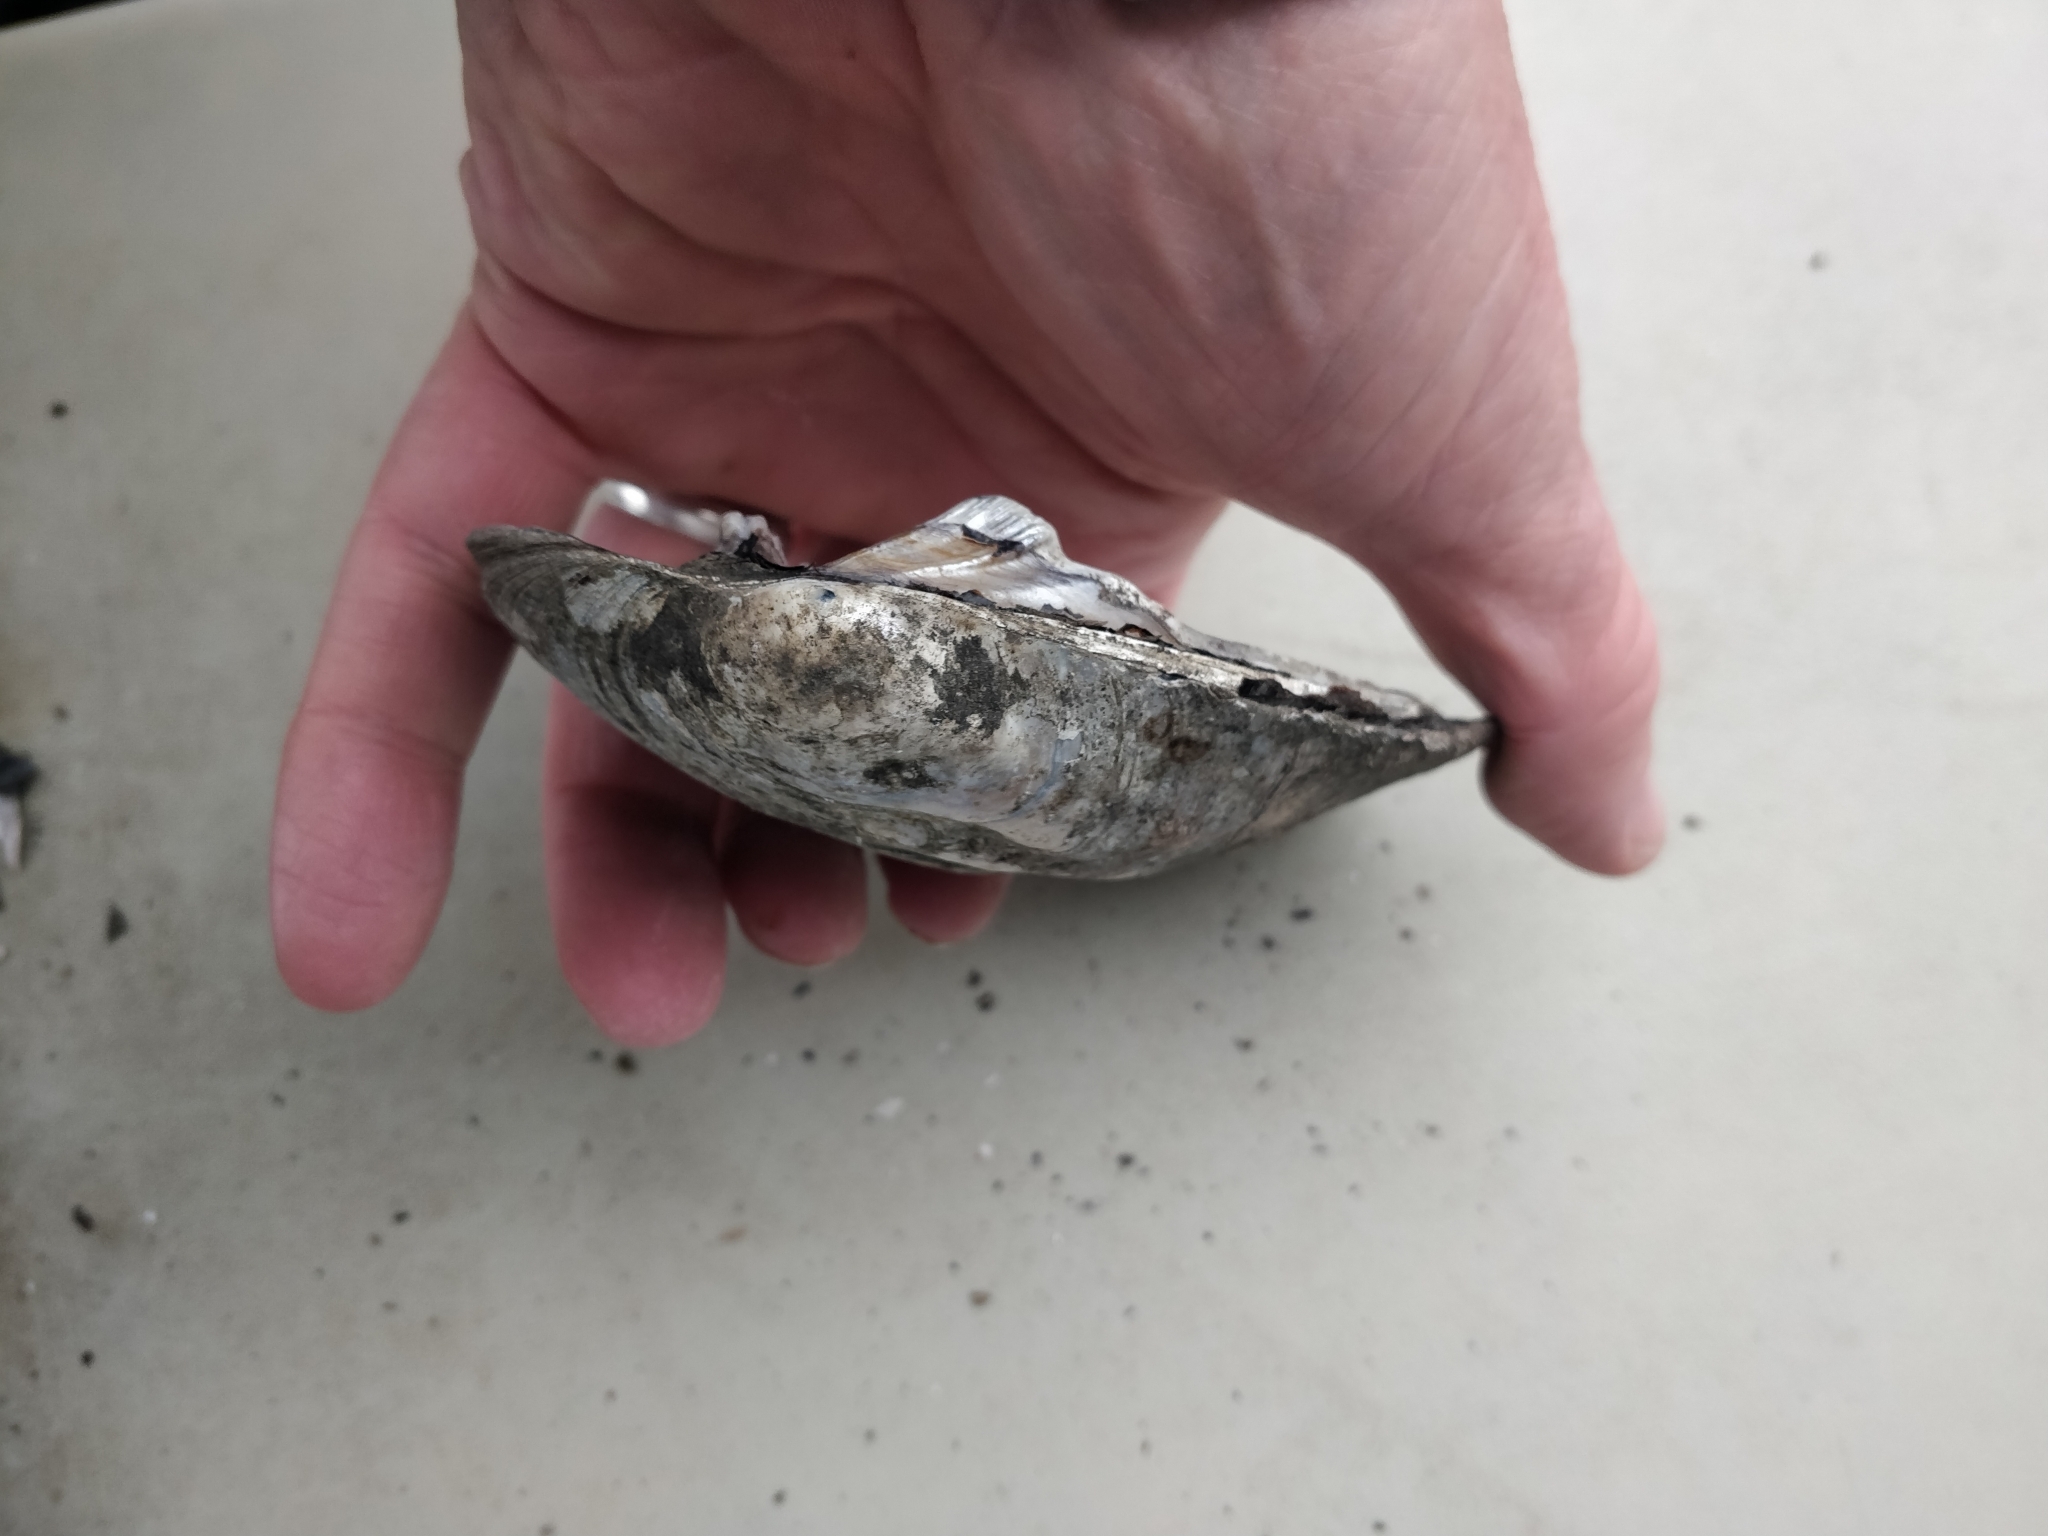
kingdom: Animalia
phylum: Mollusca
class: Bivalvia
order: Unionida
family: Unionidae
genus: Amblema
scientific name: Amblema plicata
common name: Threeridge
